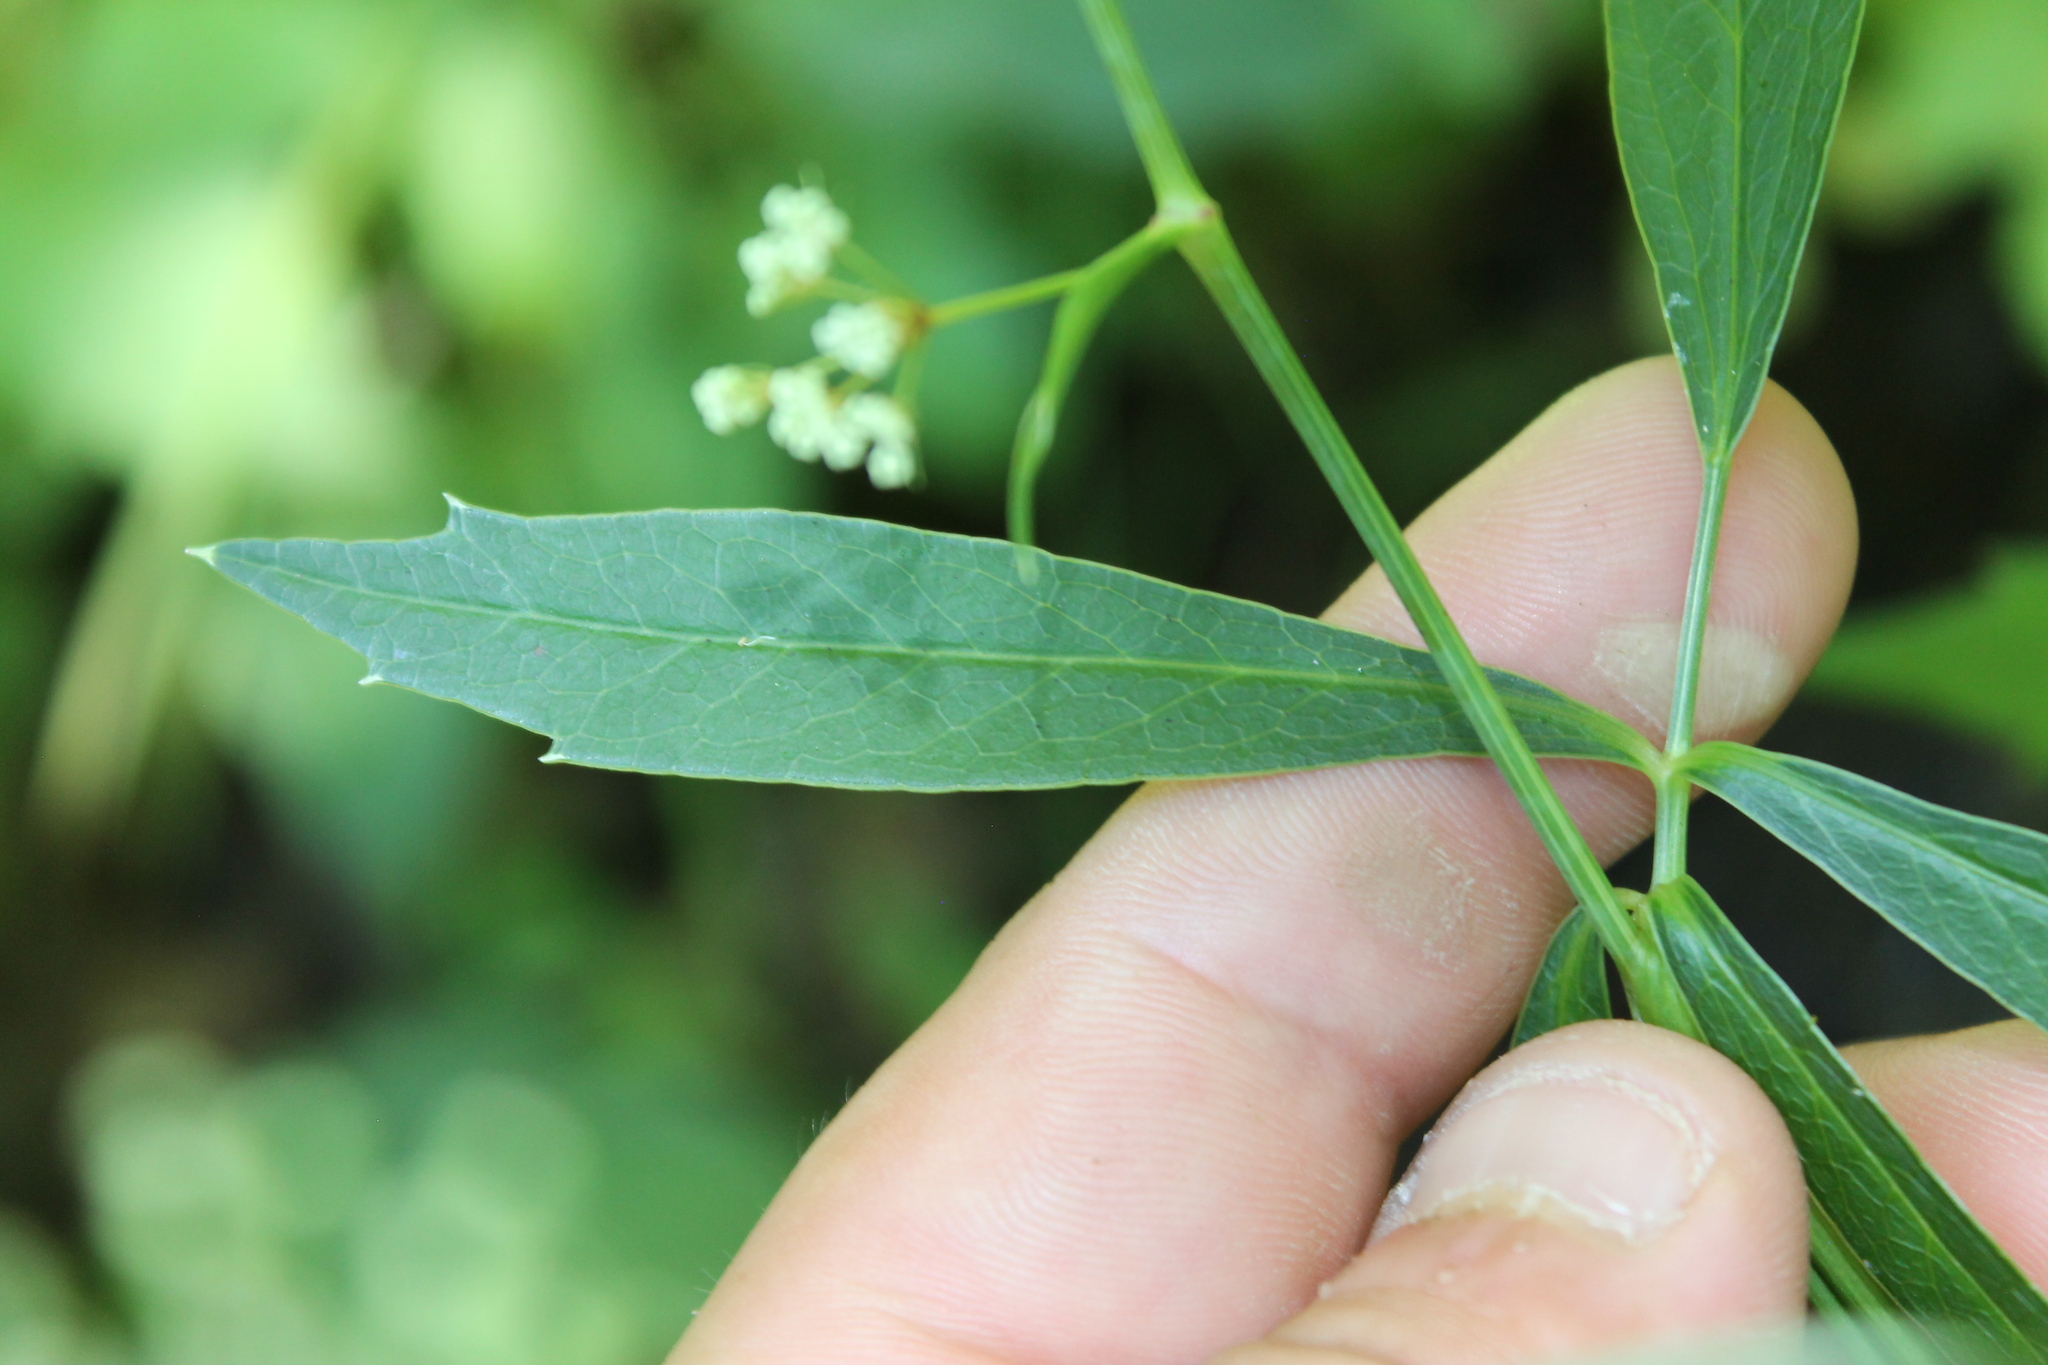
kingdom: Plantae
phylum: Tracheophyta
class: Magnoliopsida
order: Apiales
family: Apiaceae
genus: Oxypolis
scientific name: Oxypolis rigidior
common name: Cowbane
